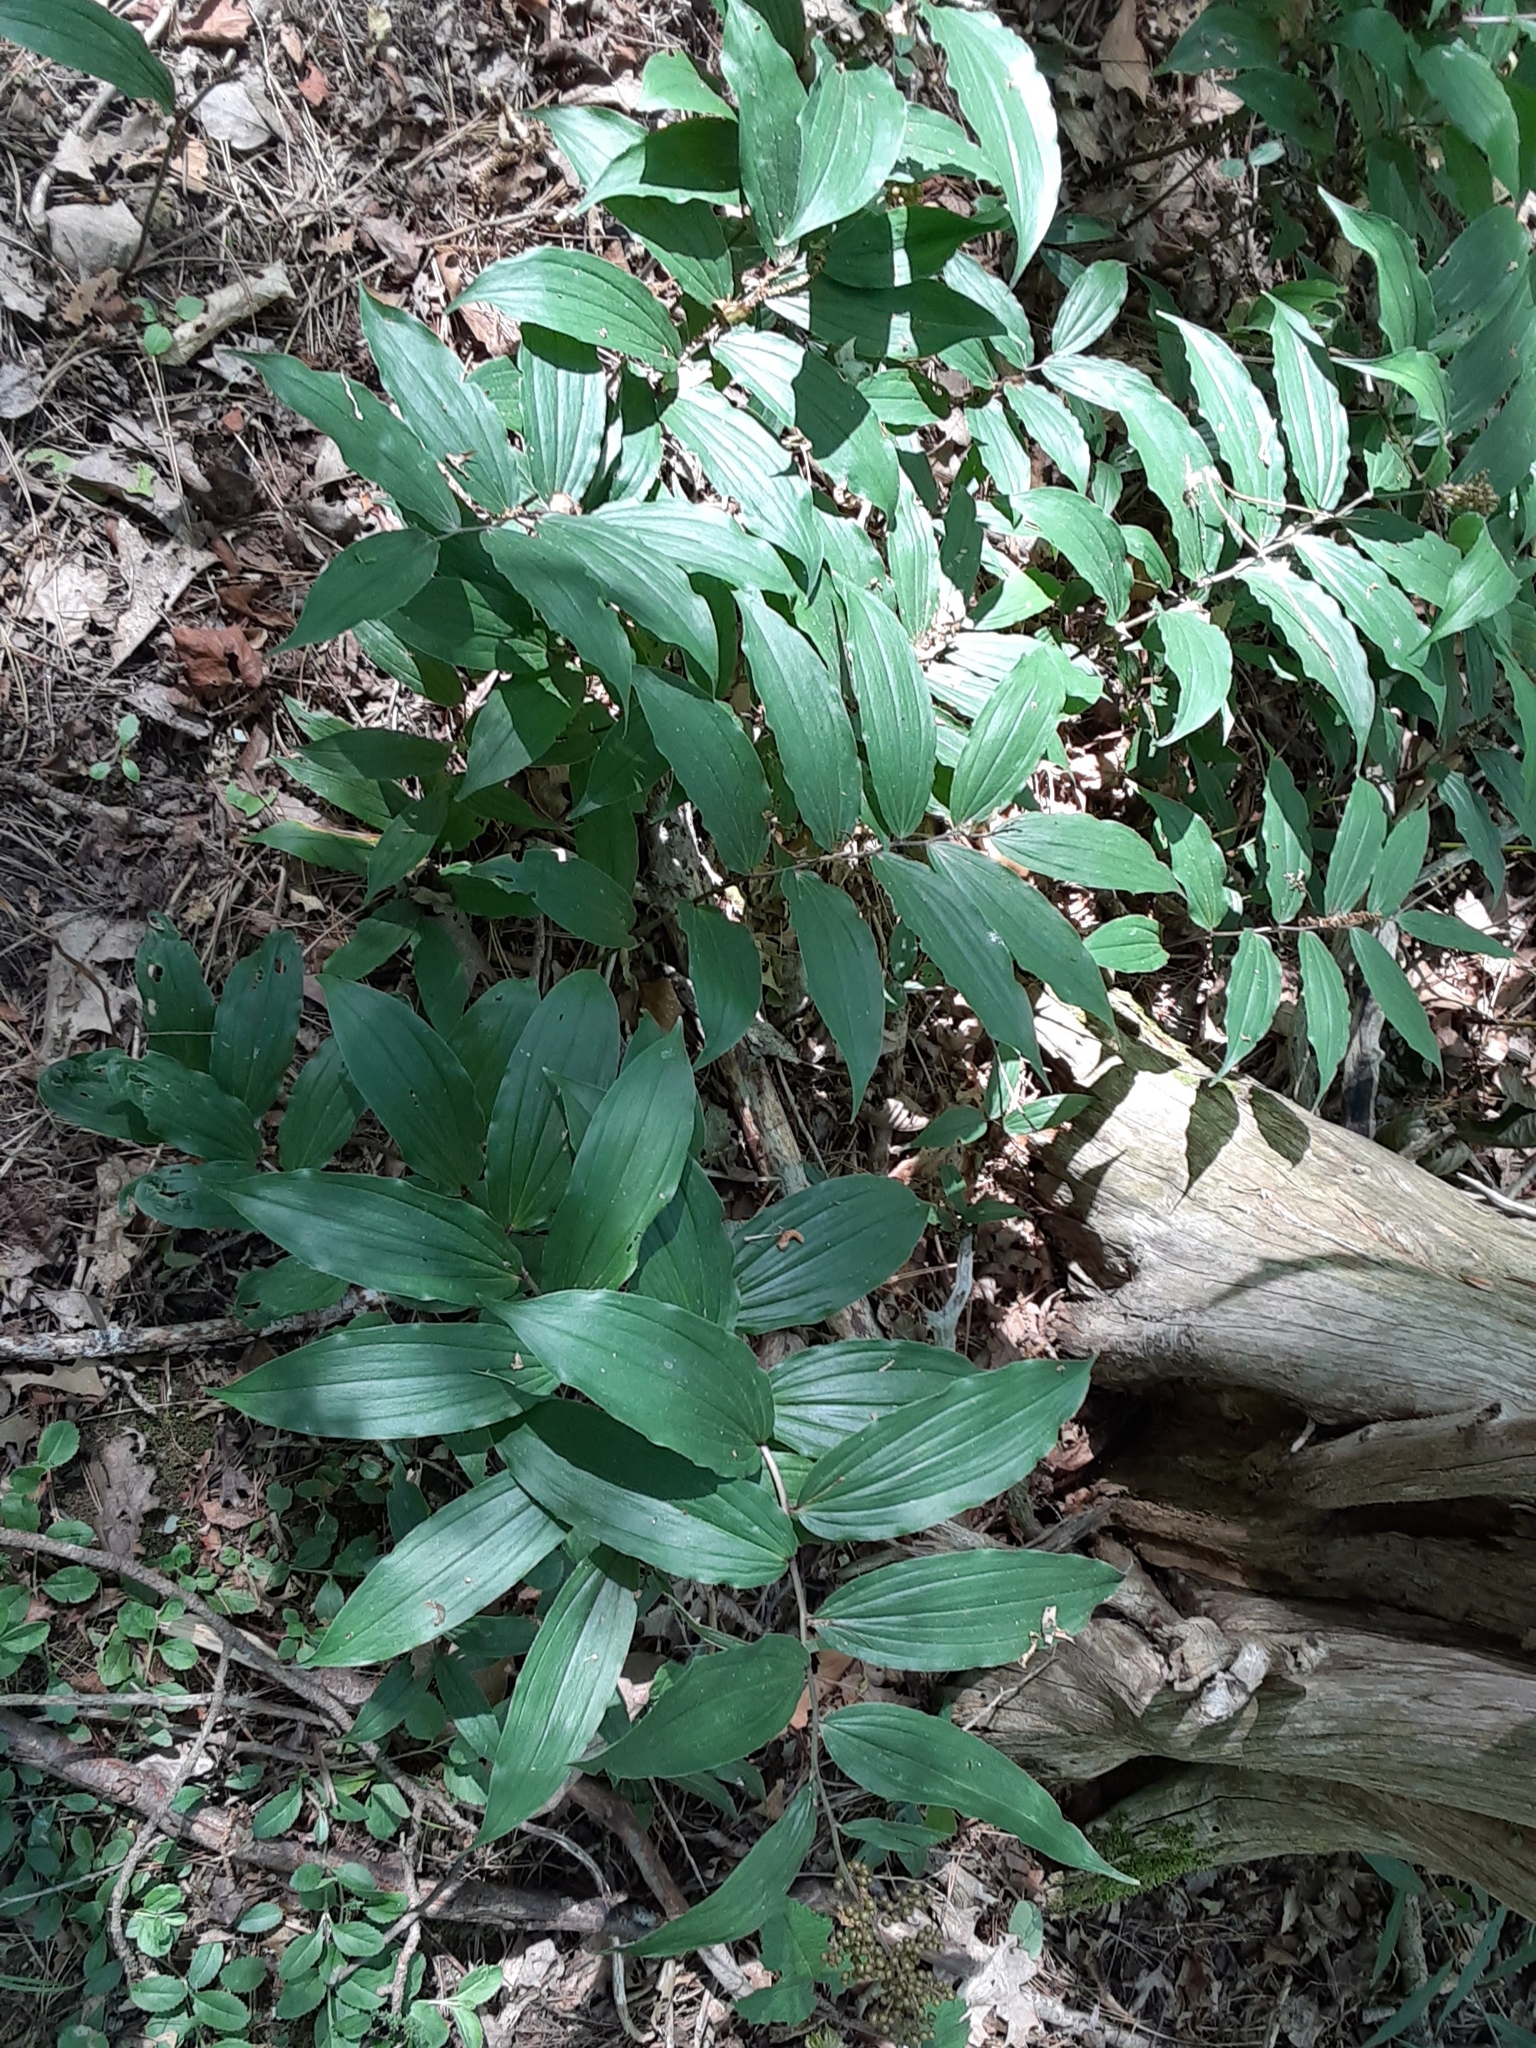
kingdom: Plantae
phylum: Tracheophyta
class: Liliopsida
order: Asparagales
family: Asparagaceae
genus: Maianthemum
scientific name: Maianthemum racemosum
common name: False spikenard
